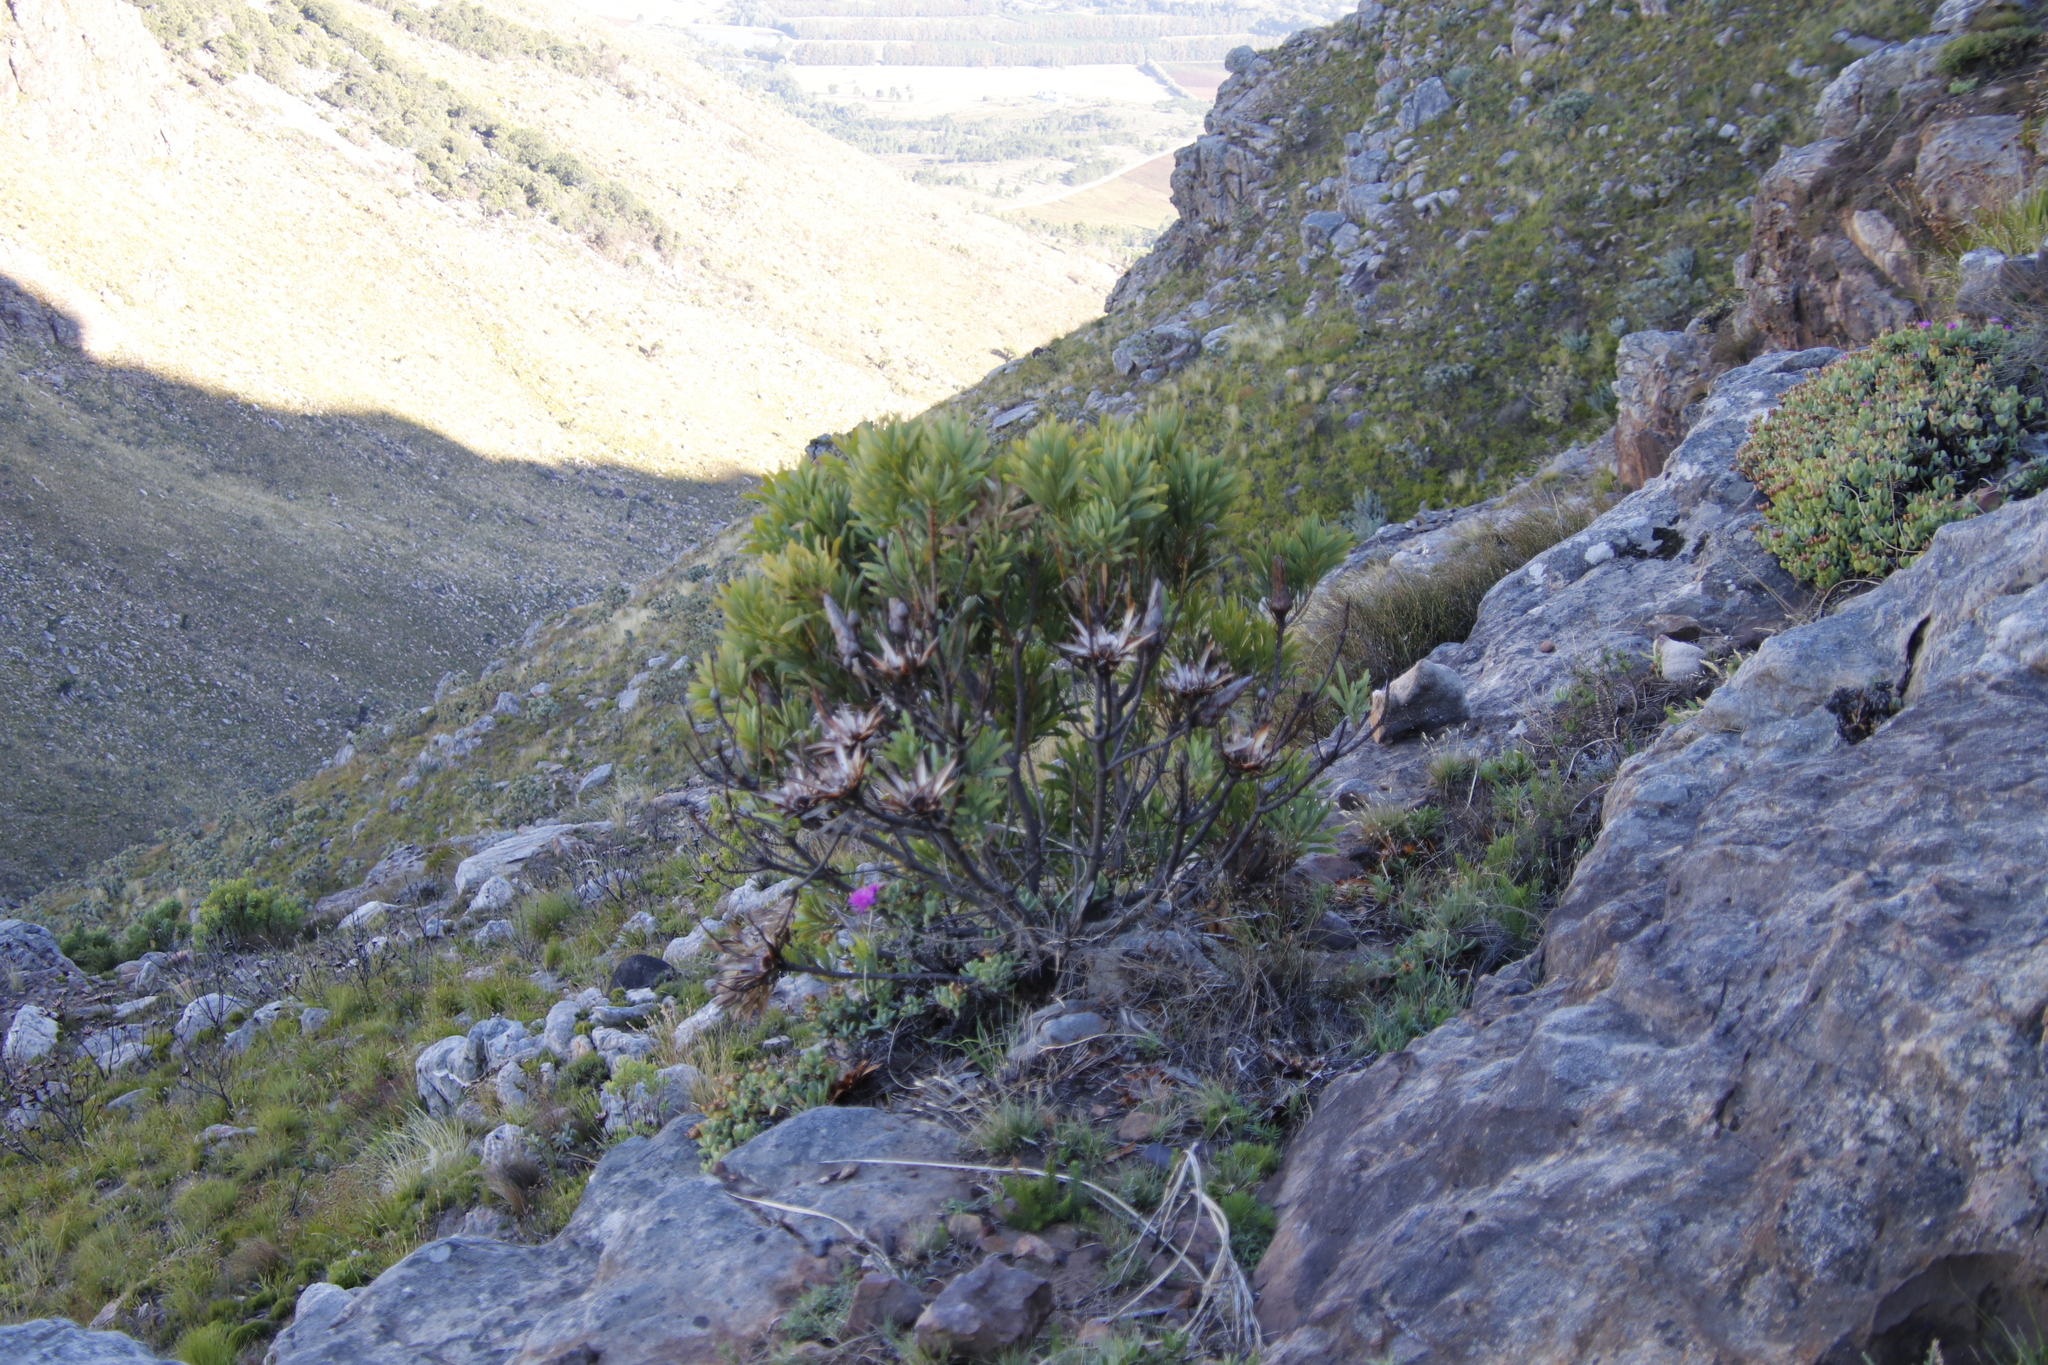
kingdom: Plantae
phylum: Tracheophyta
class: Magnoliopsida
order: Proteales
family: Proteaceae
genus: Protea
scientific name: Protea repens
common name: Sugarbush
